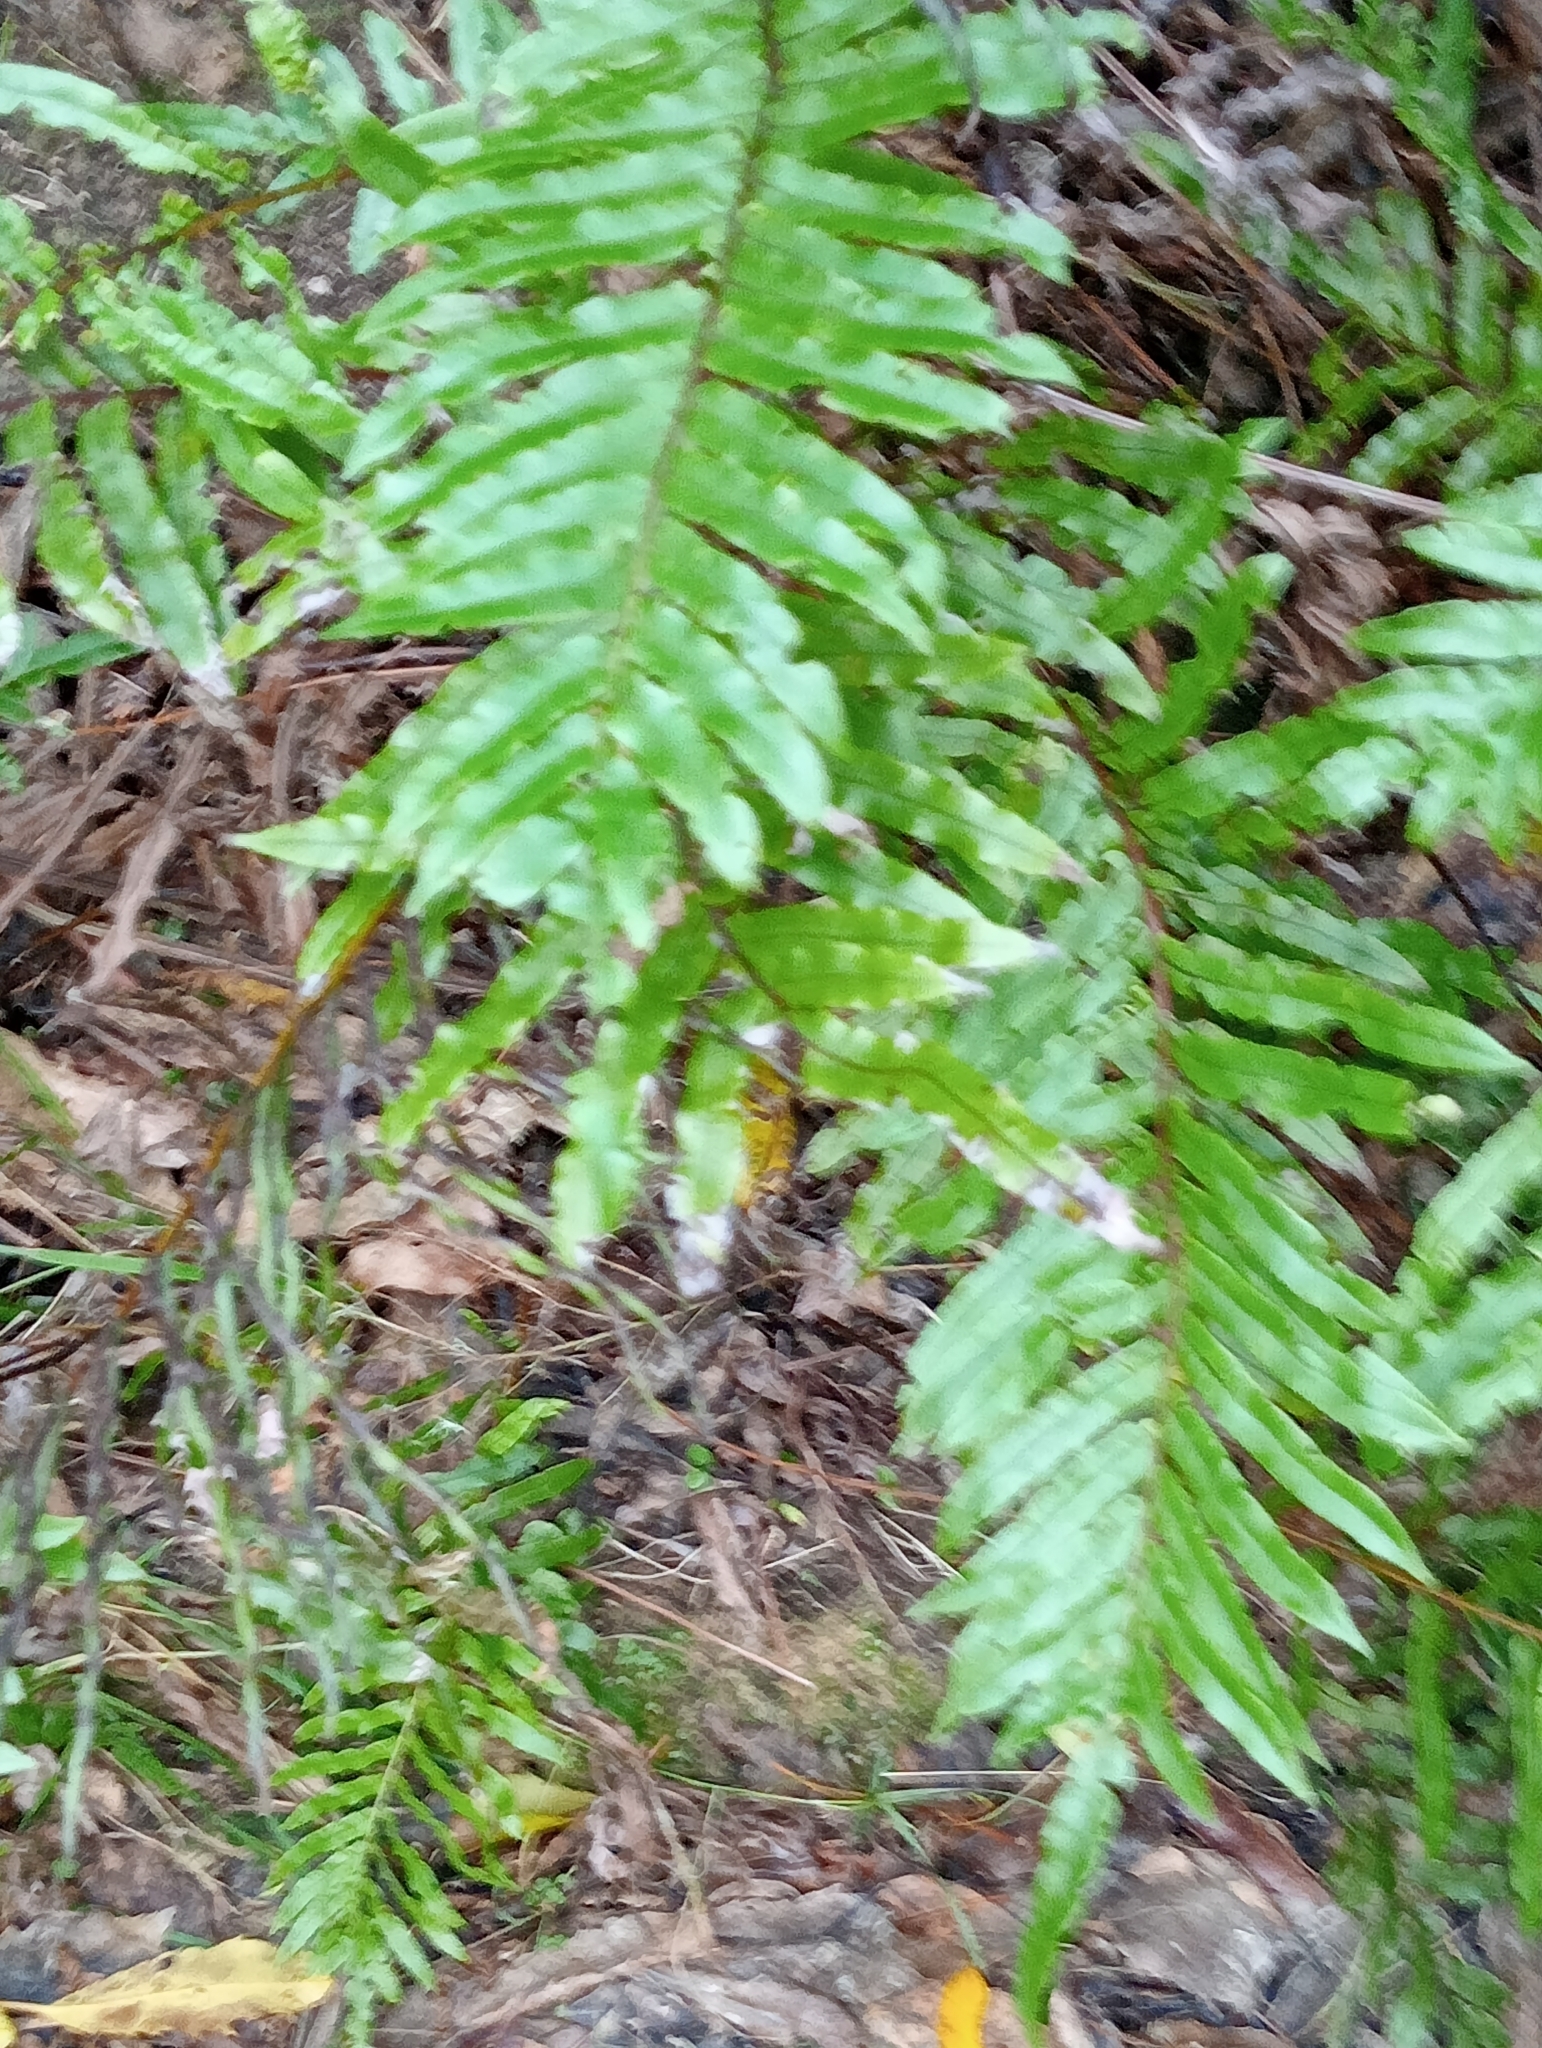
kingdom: Plantae
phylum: Tracheophyta
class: Polypodiopsida
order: Polypodiales
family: Blechnaceae
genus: Parablechnum
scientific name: Parablechnum novae-zelandiae
